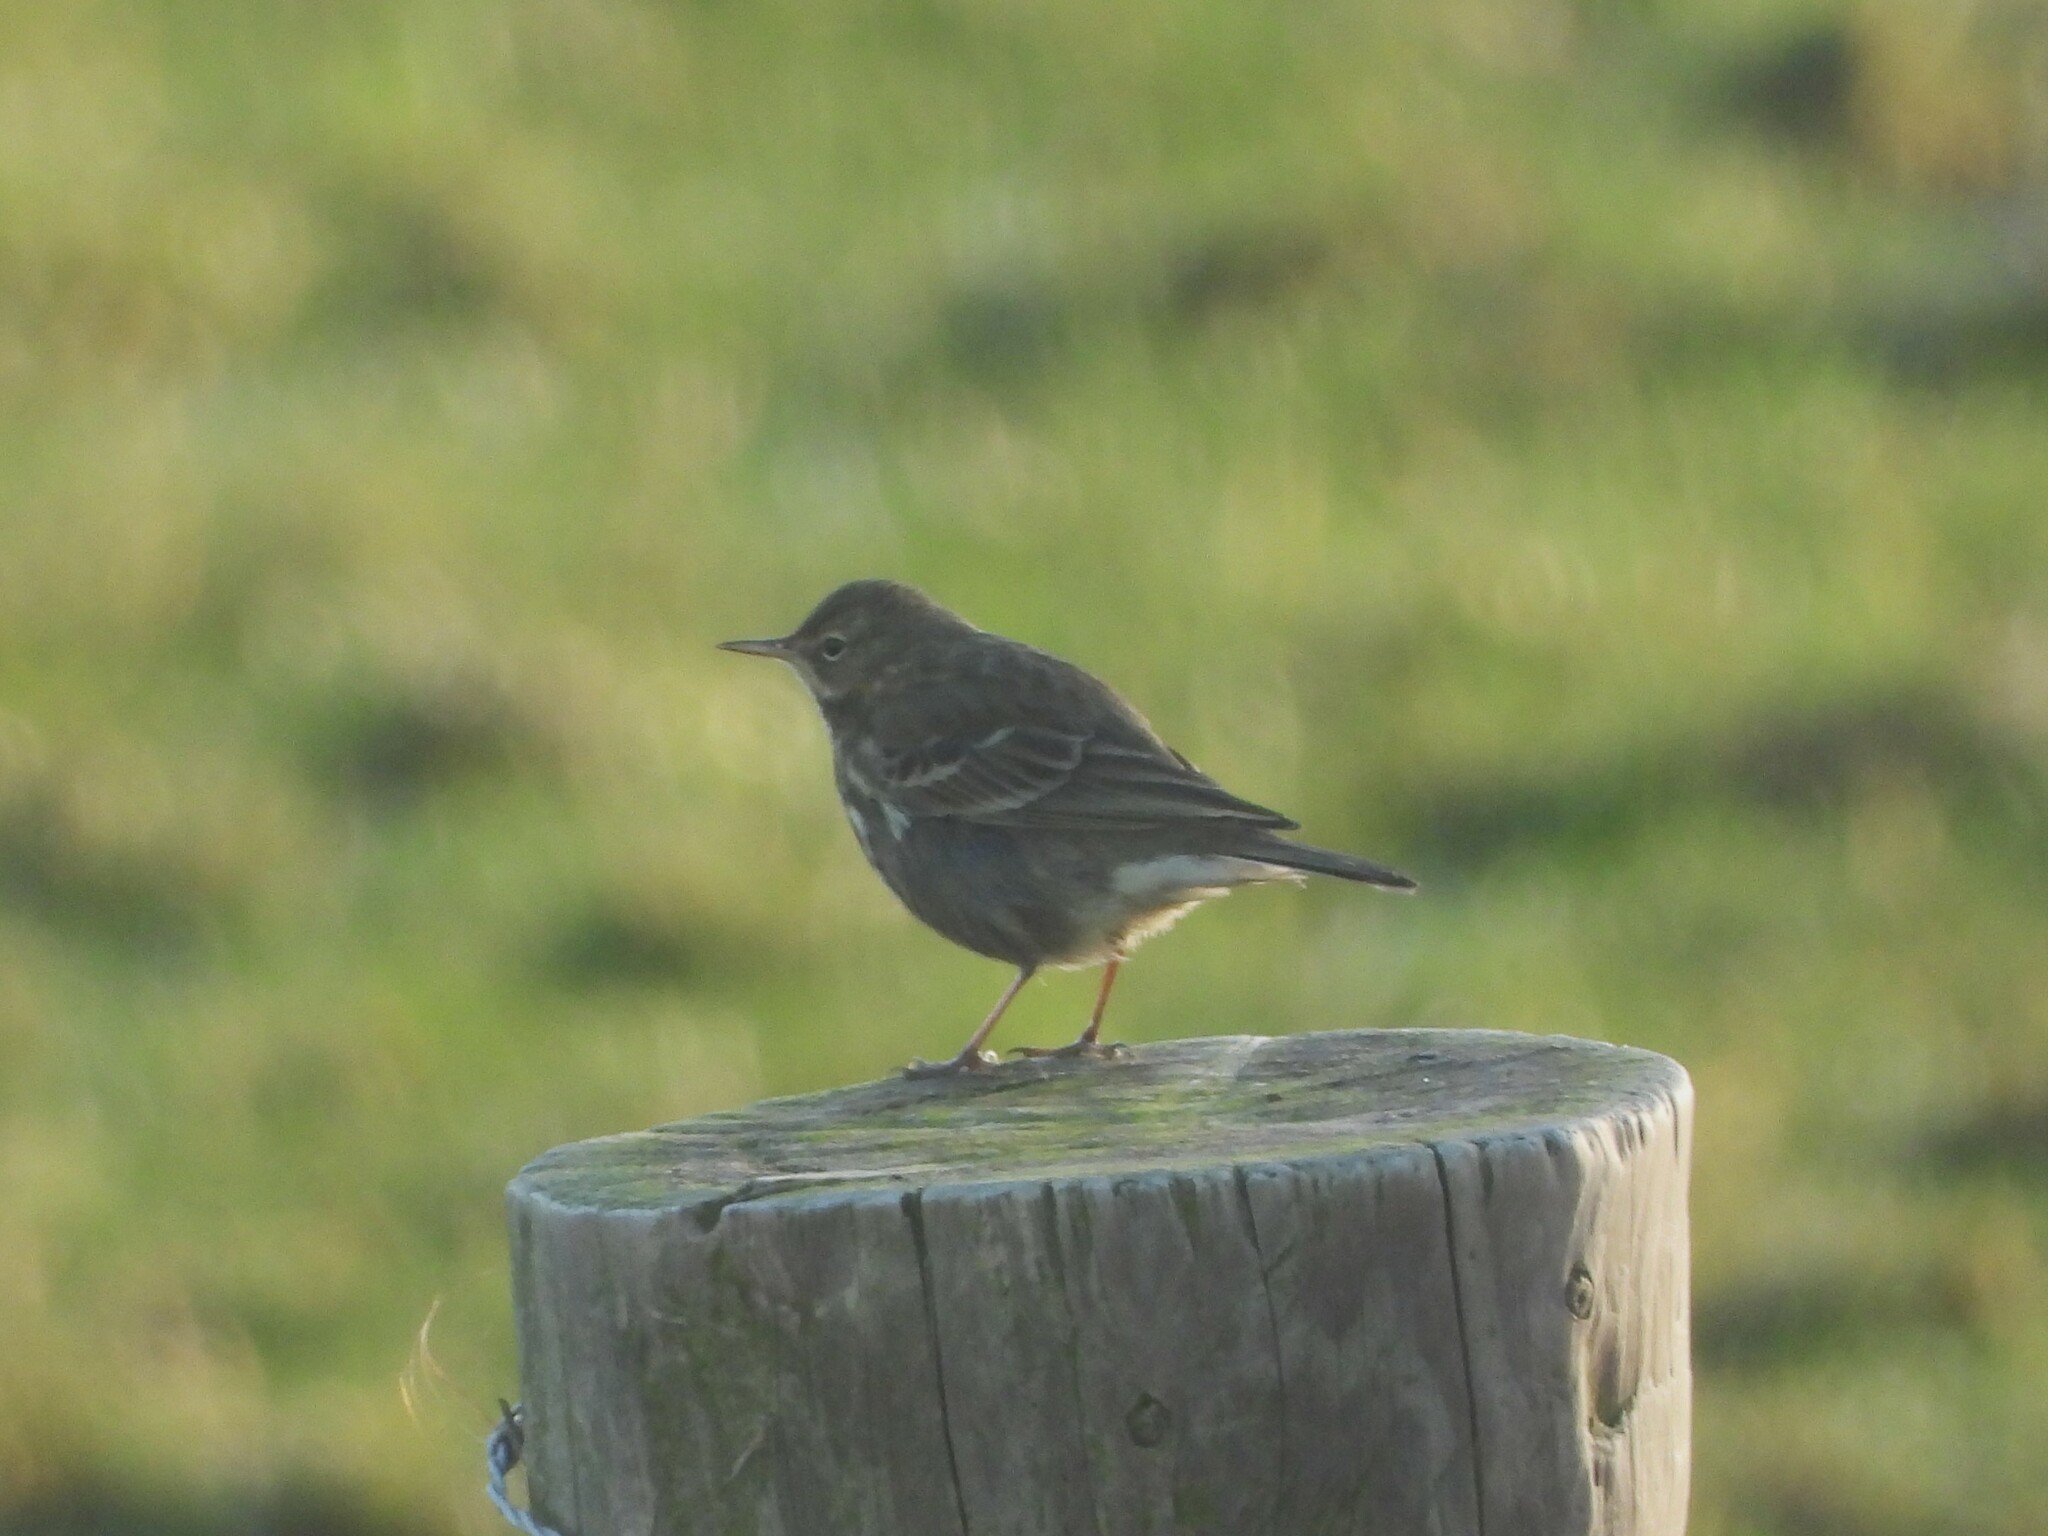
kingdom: Animalia
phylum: Chordata
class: Aves
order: Passeriformes
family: Motacillidae
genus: Anthus
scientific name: Anthus petrosus
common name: Eurasian rock pipit
